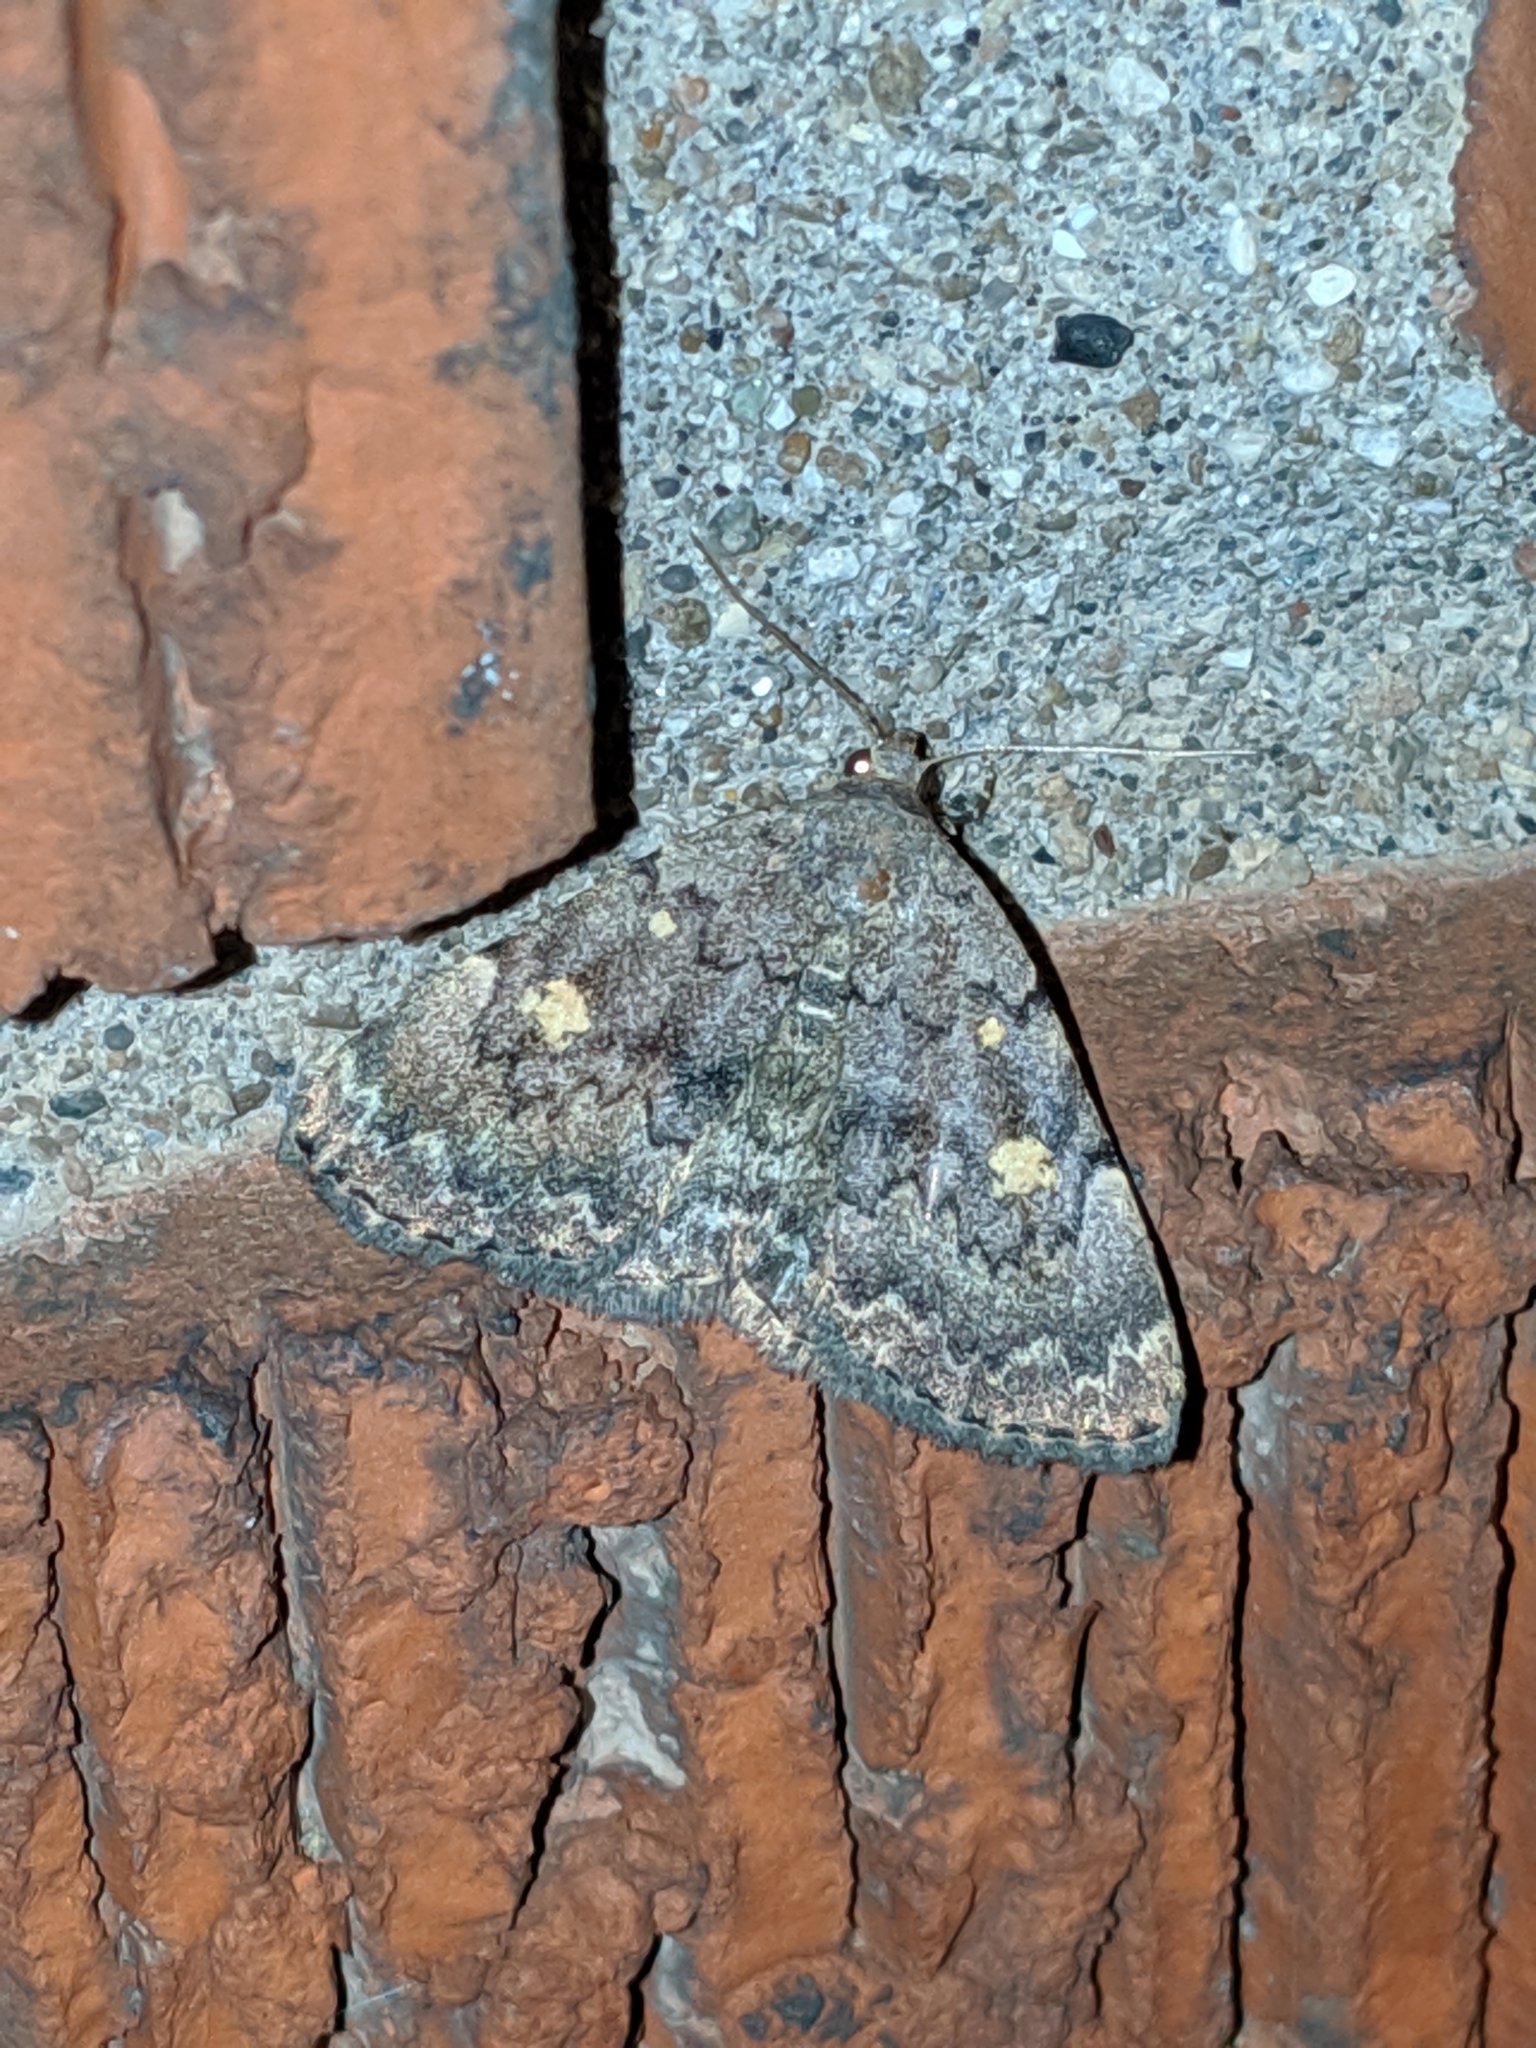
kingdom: Animalia
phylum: Arthropoda
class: Insecta
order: Lepidoptera
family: Erebidae
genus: Idia
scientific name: Idia aemula
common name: Common idia moth
